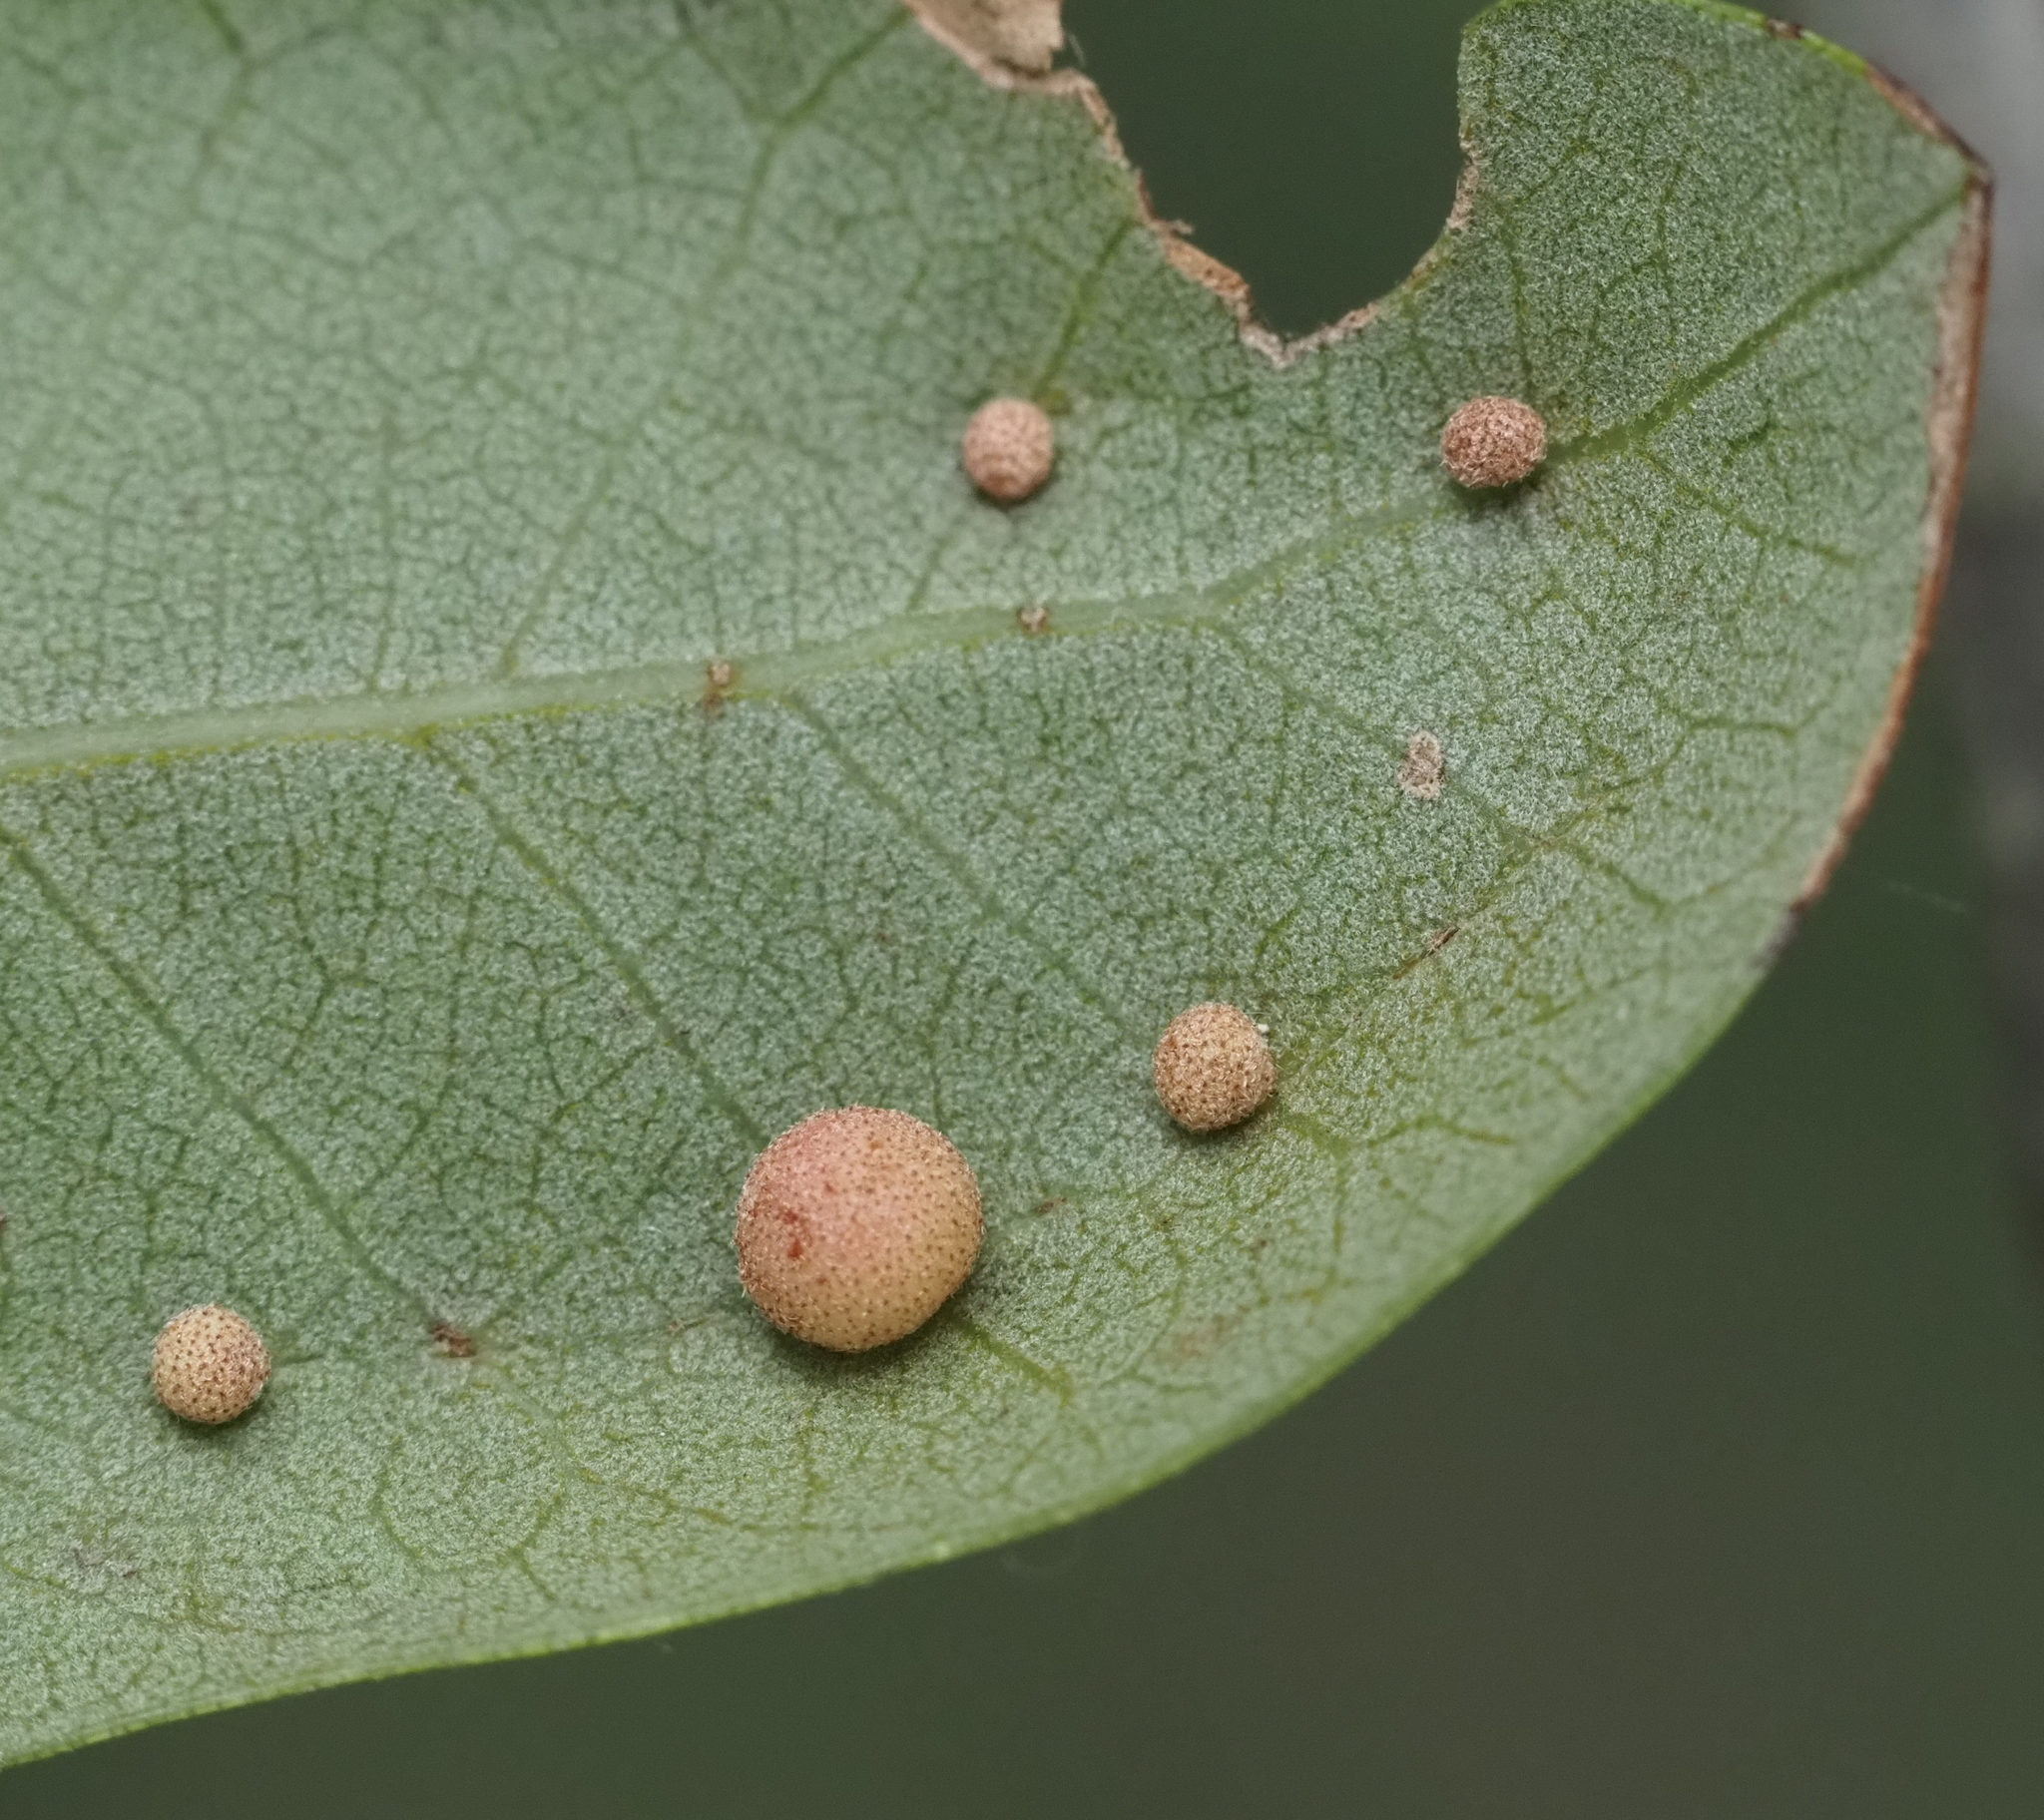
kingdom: Animalia
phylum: Arthropoda
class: Insecta
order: Hymenoptera
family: Cynipidae
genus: Belonocnema
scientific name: Belonocnema kinseyi
